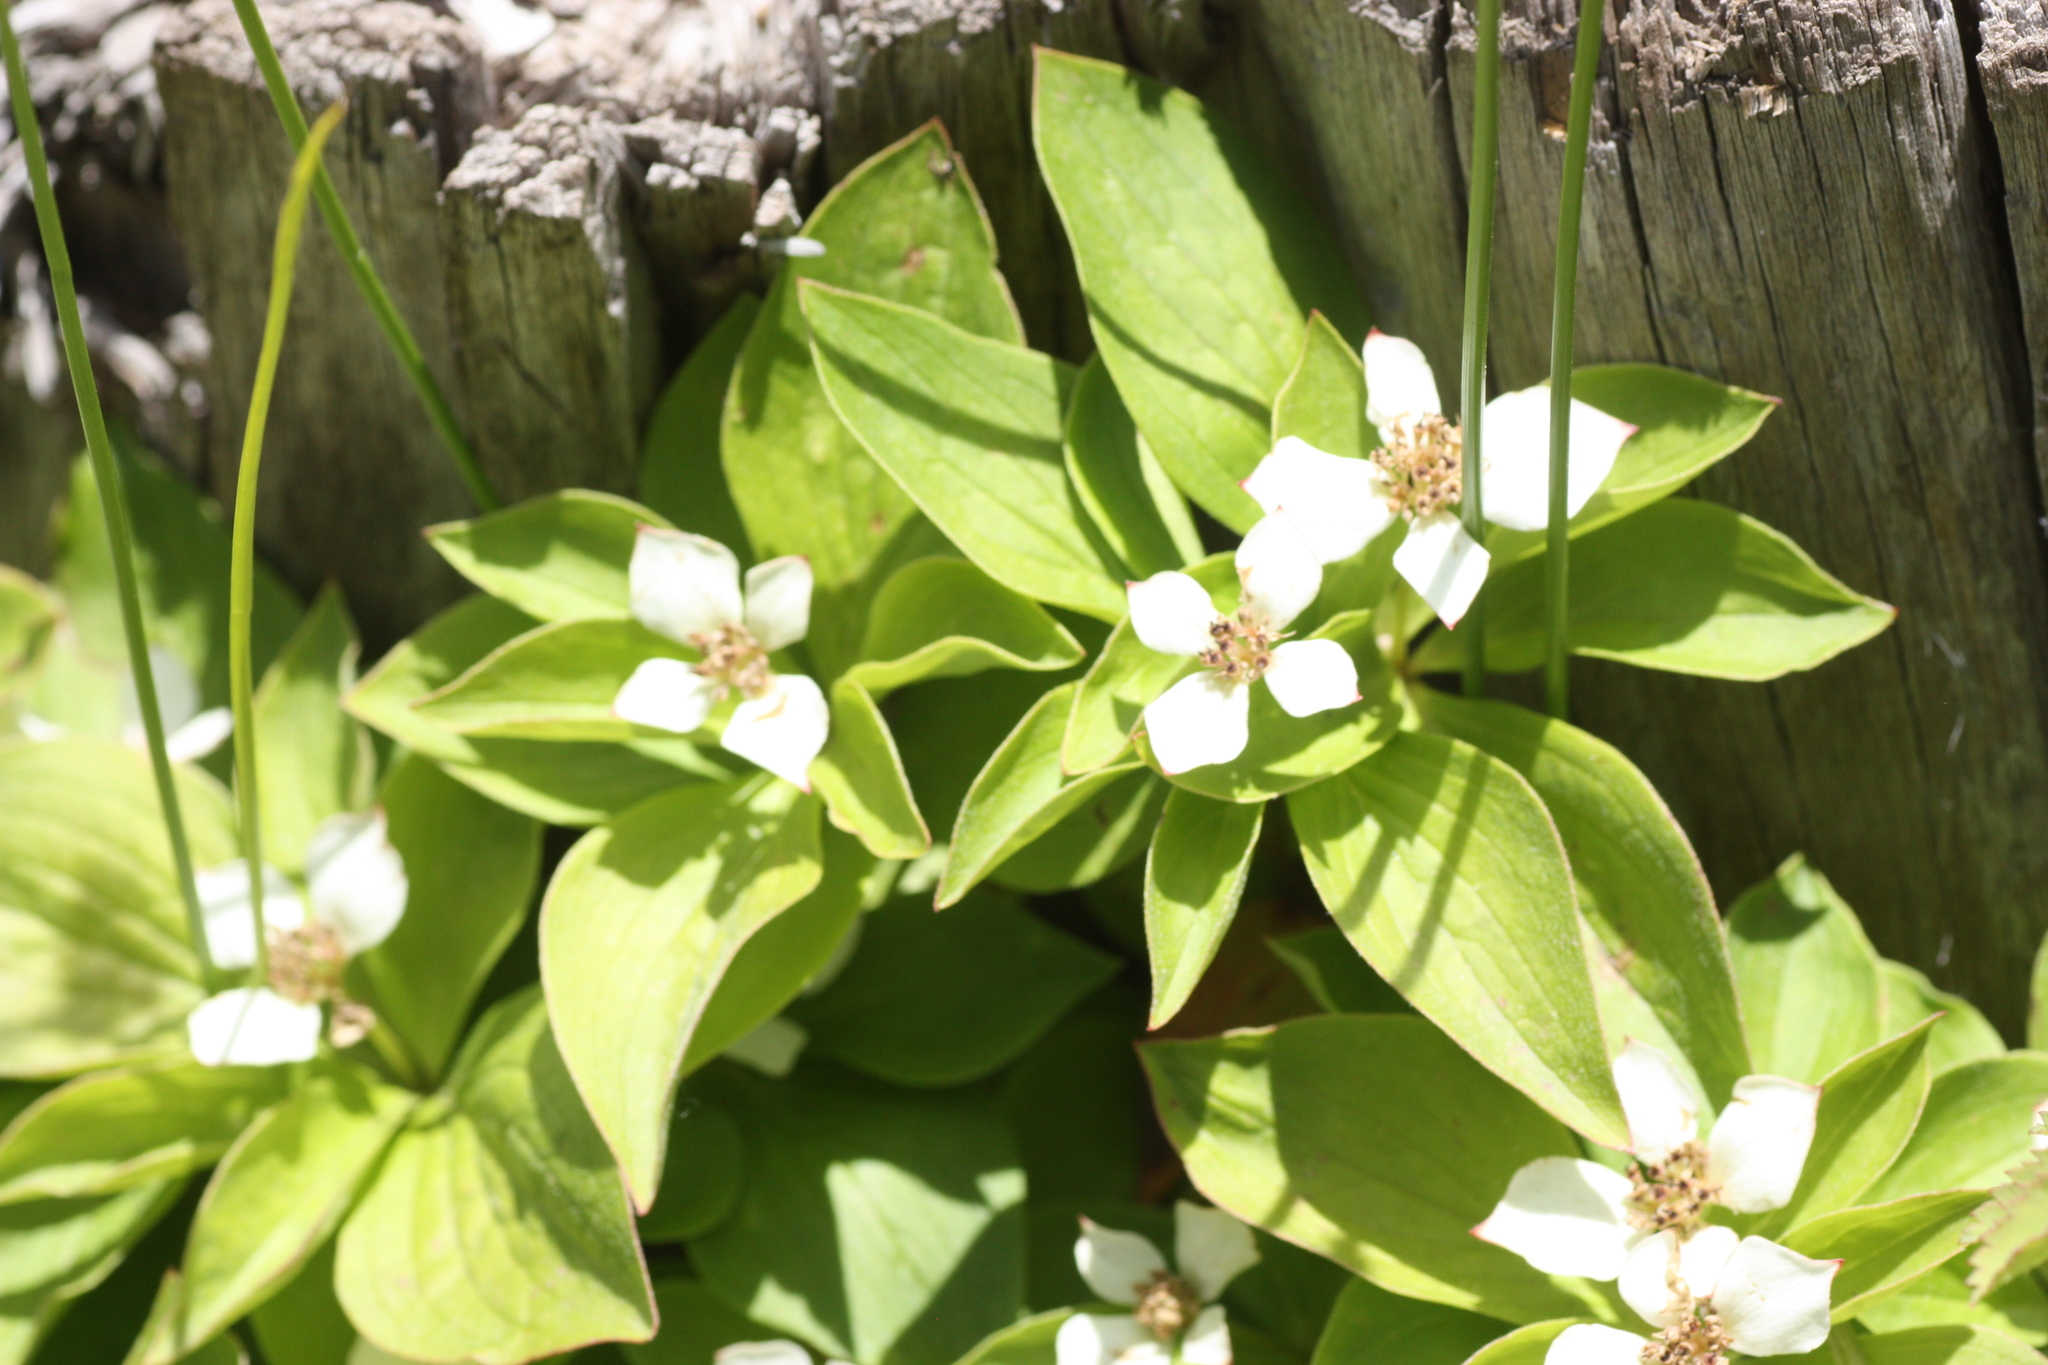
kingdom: Plantae
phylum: Tracheophyta
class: Magnoliopsida
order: Cornales
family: Cornaceae
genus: Cornus
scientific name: Cornus canadensis
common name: Creeping dogwood
